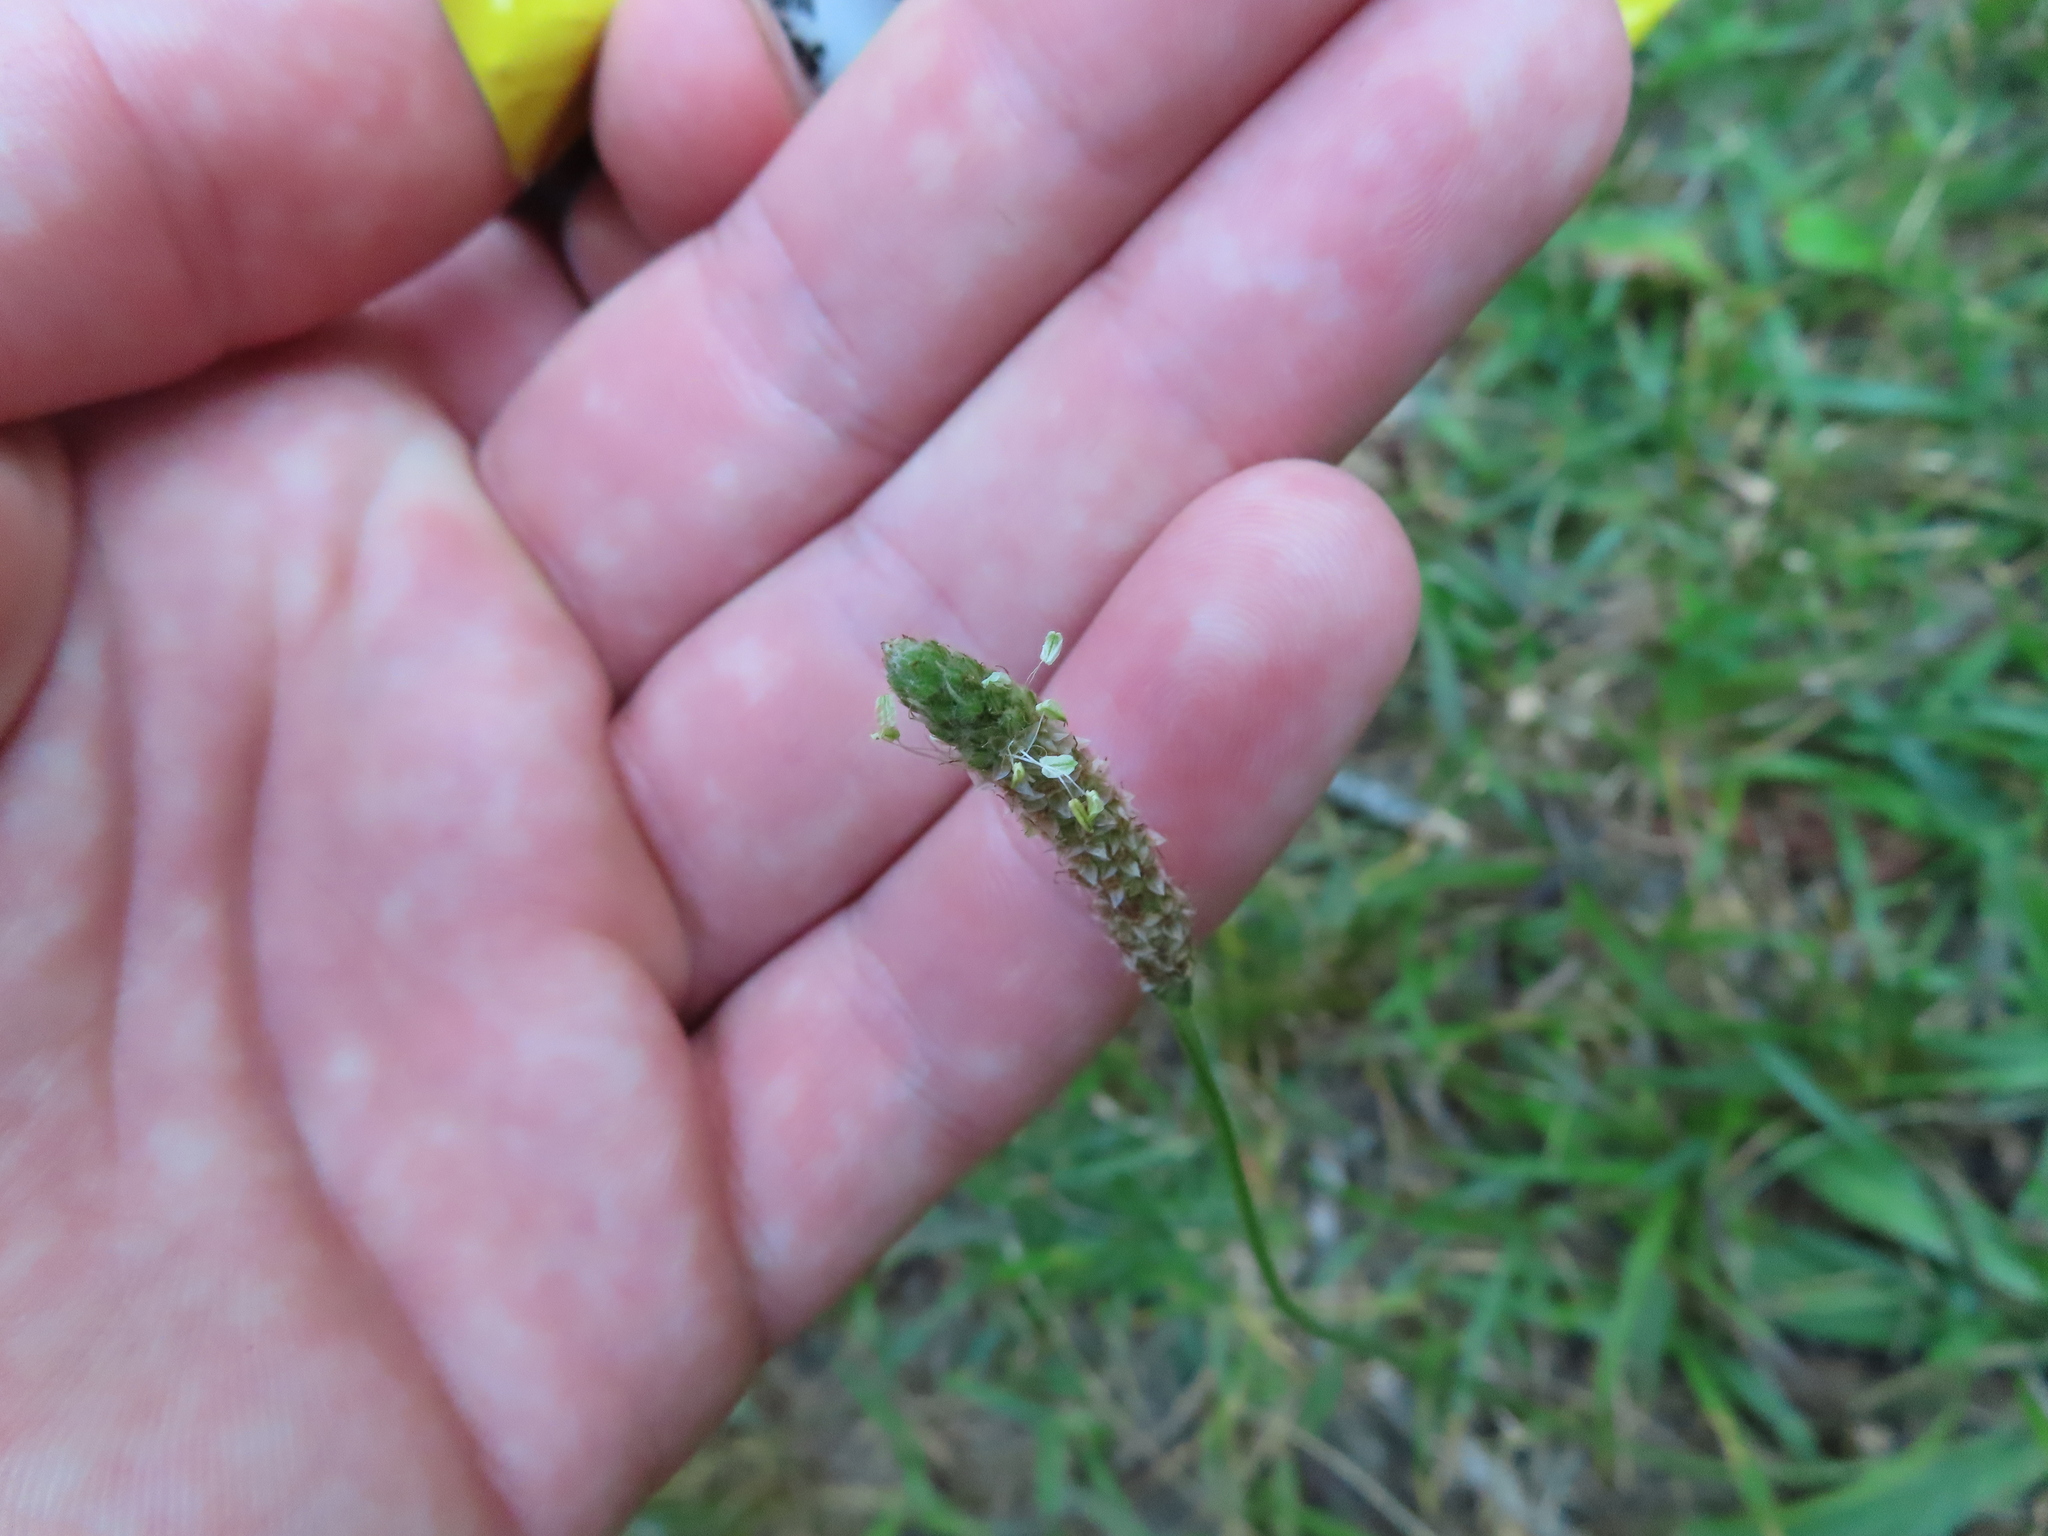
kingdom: Plantae
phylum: Tracheophyta
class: Magnoliopsida
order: Lamiales
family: Plantaginaceae
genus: Plantago
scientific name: Plantago lanceolata
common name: Ribwort plantain
